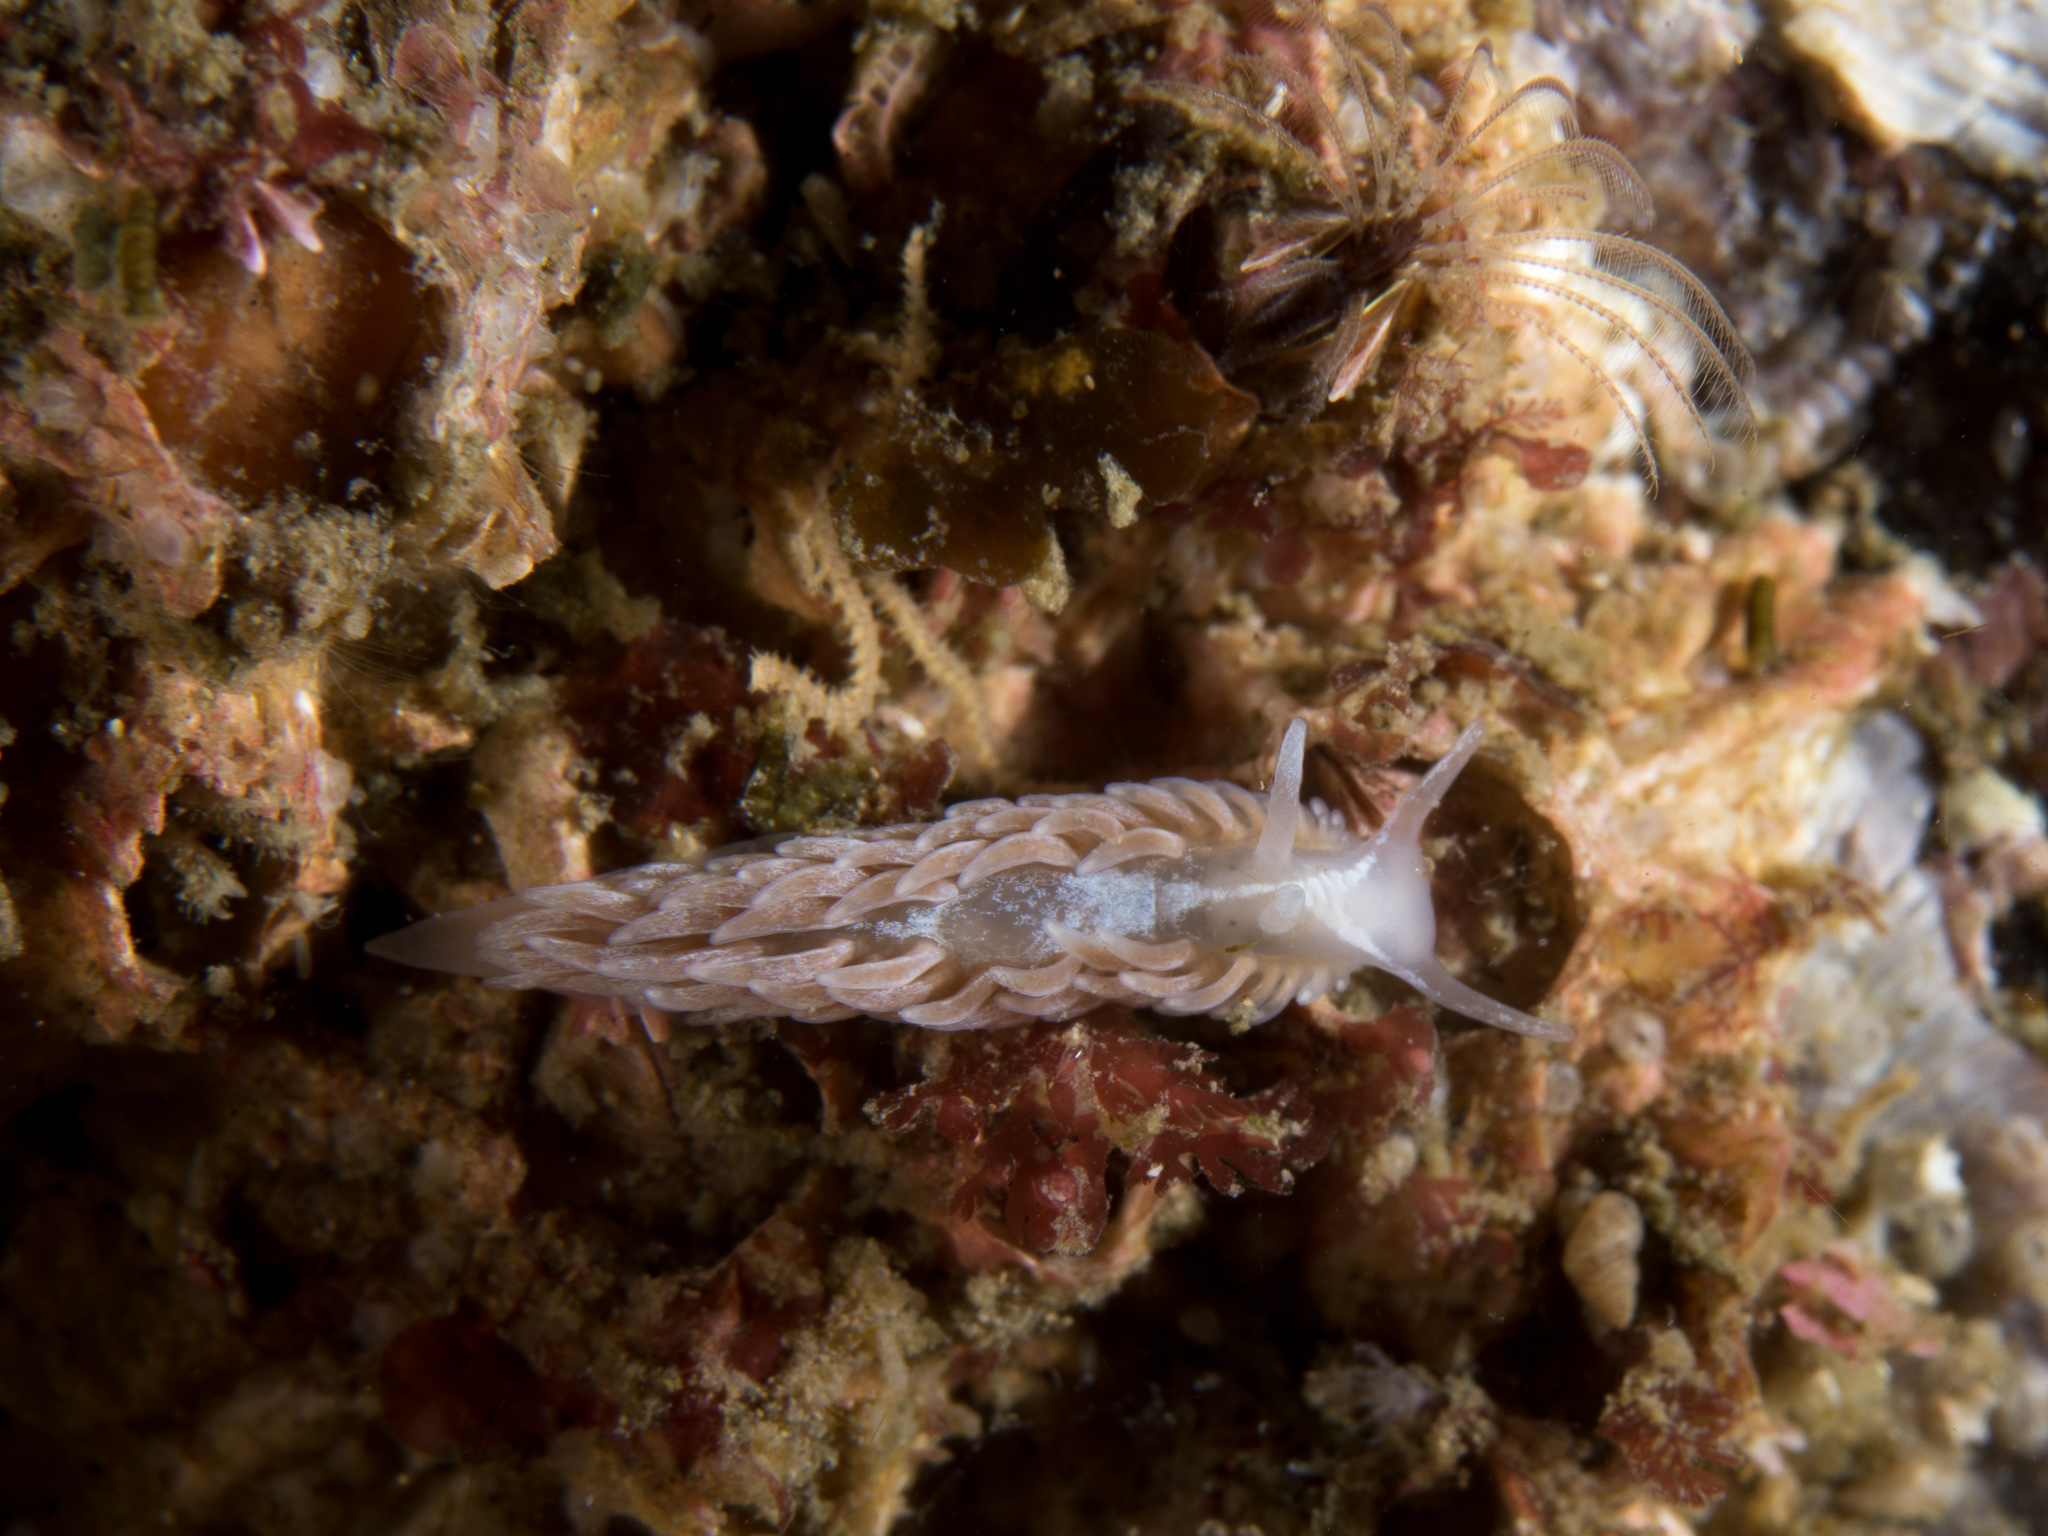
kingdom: Animalia
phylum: Mollusca
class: Gastropoda
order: Nudibranchia
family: Aeolidiidae
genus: Aeolidia
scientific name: Aeolidia filomenae
